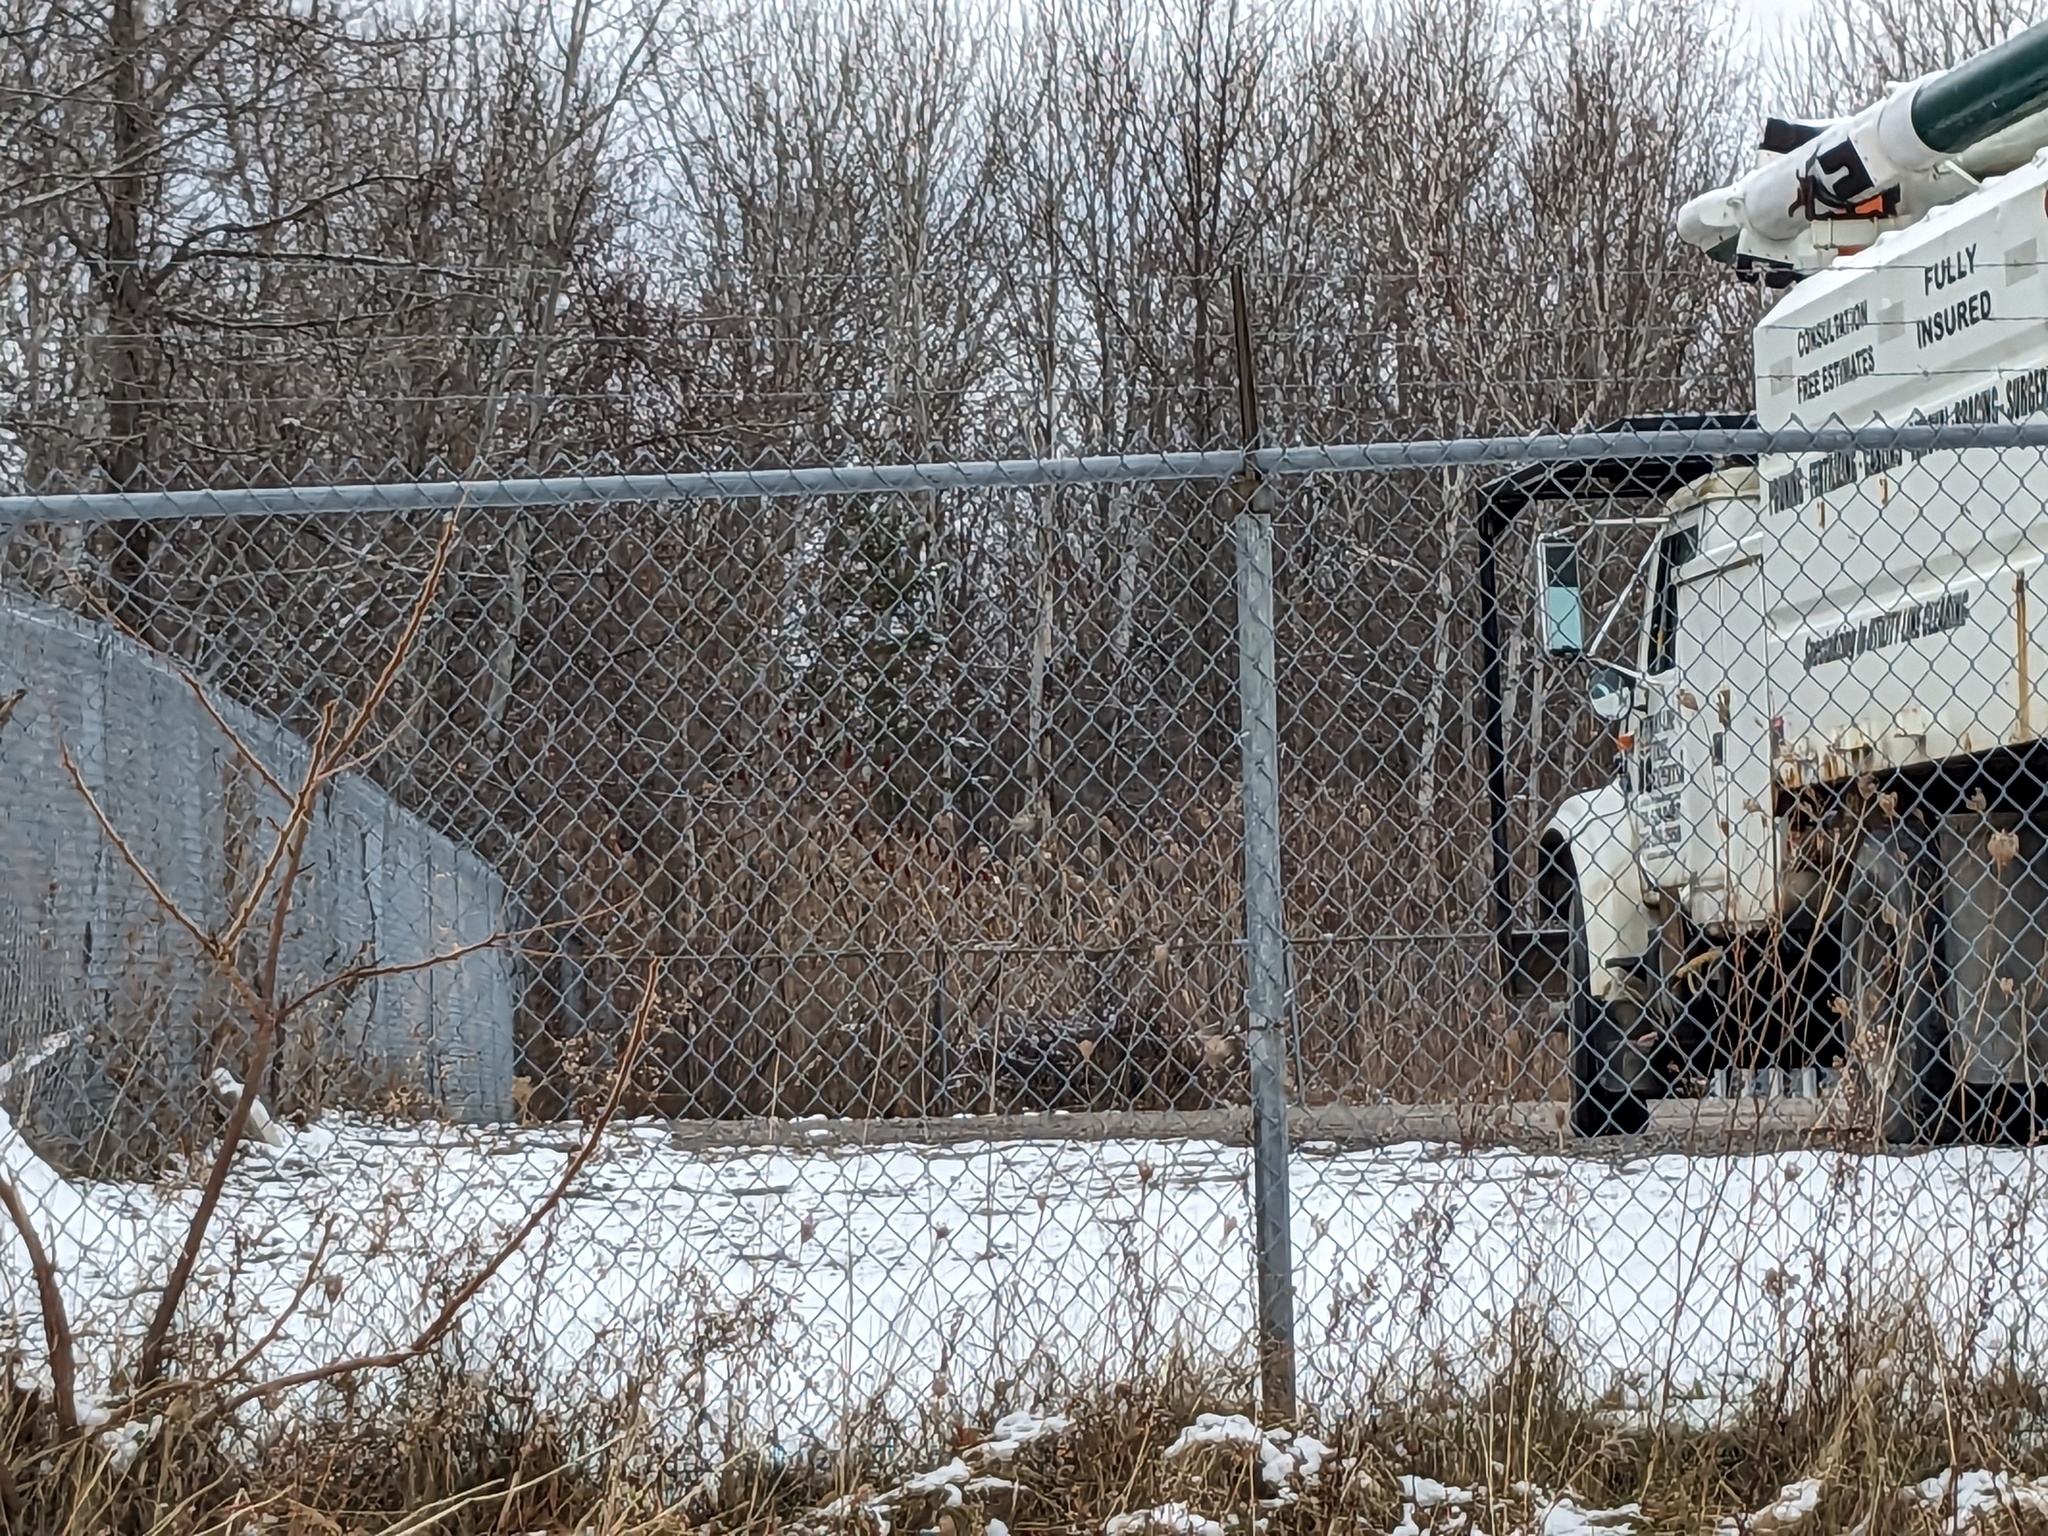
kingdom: Plantae
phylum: Tracheophyta
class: Liliopsida
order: Poales
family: Poaceae
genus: Phragmites
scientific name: Phragmites australis
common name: Common reed
